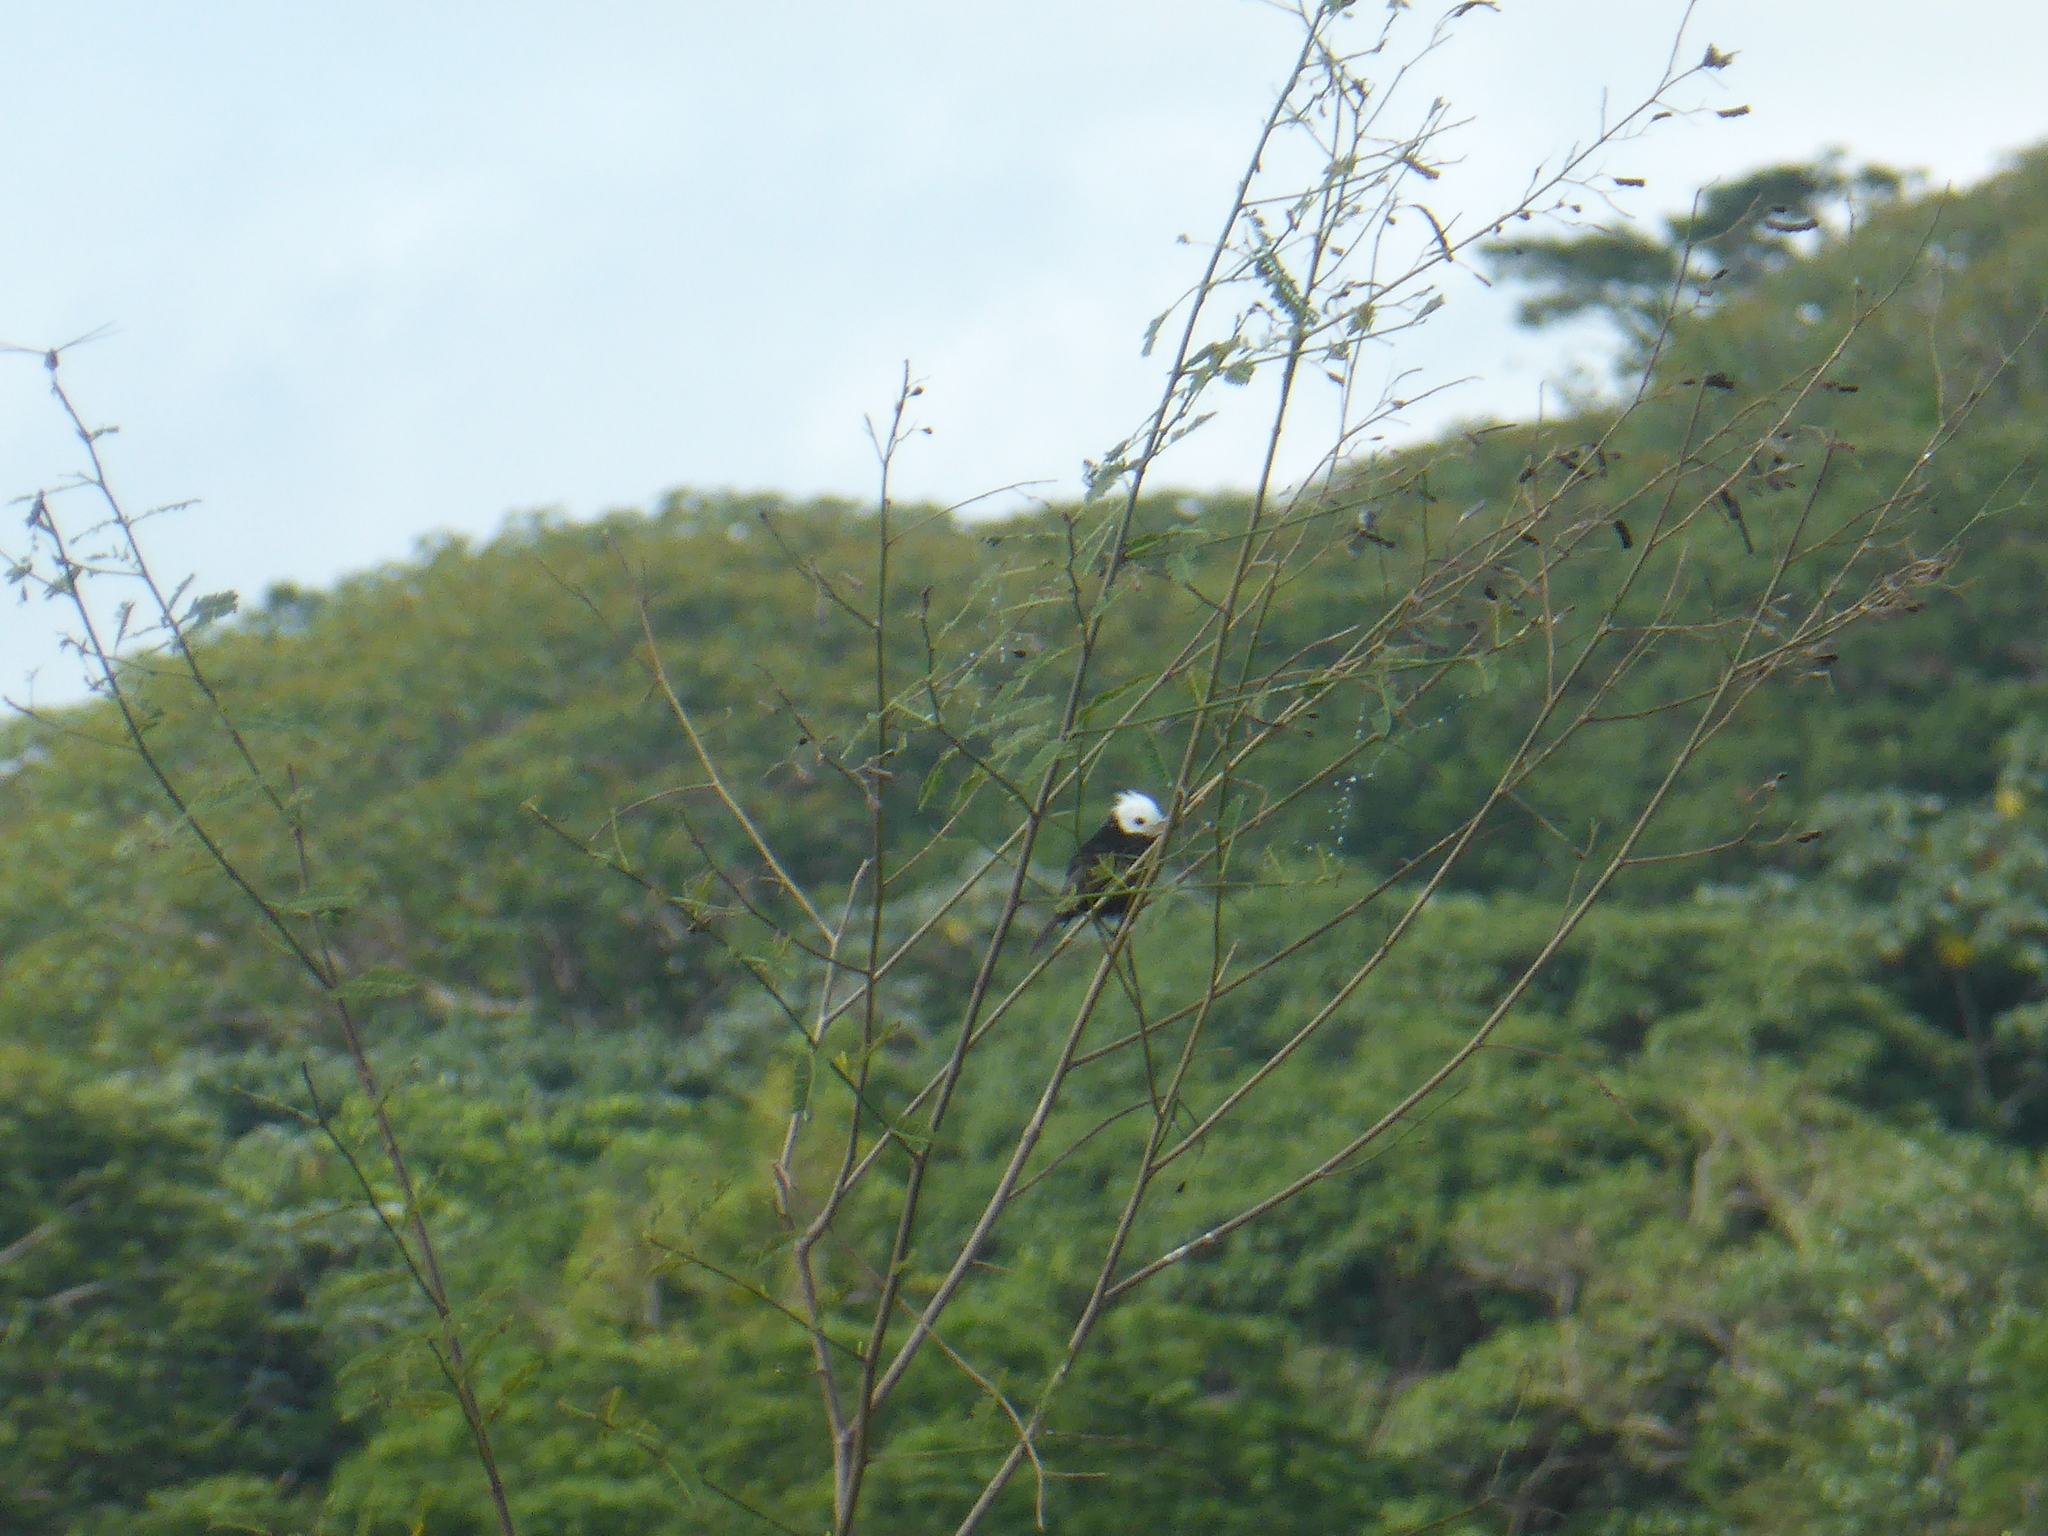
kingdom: Animalia
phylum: Chordata
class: Aves
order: Passeriformes
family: Tyrannidae
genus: Arundinicola
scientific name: Arundinicola leucocephala
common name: White-headed marsh tyrant
